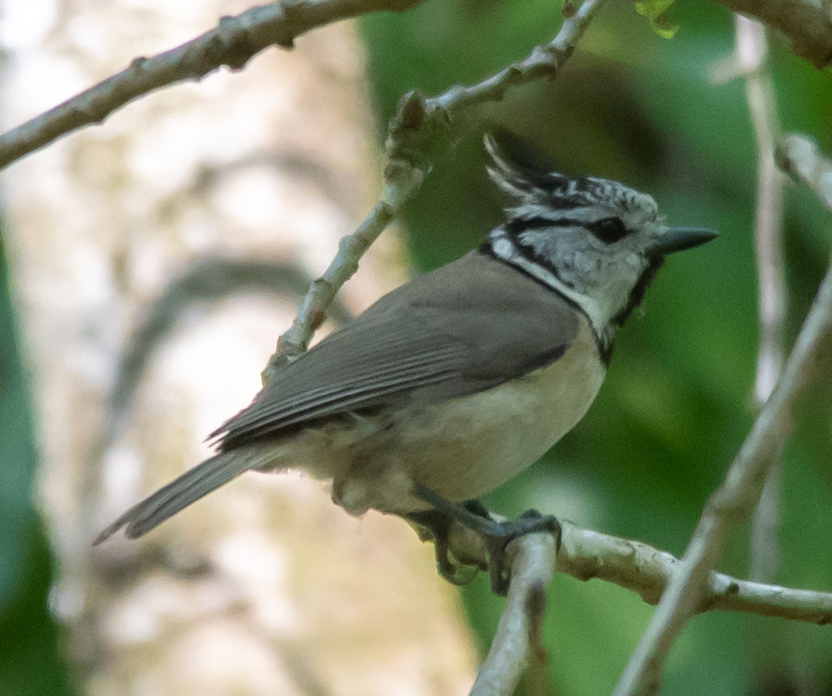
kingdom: Animalia
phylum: Chordata
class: Aves
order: Passeriformes
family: Paridae
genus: Lophophanes
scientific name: Lophophanes cristatus
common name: European crested tit
